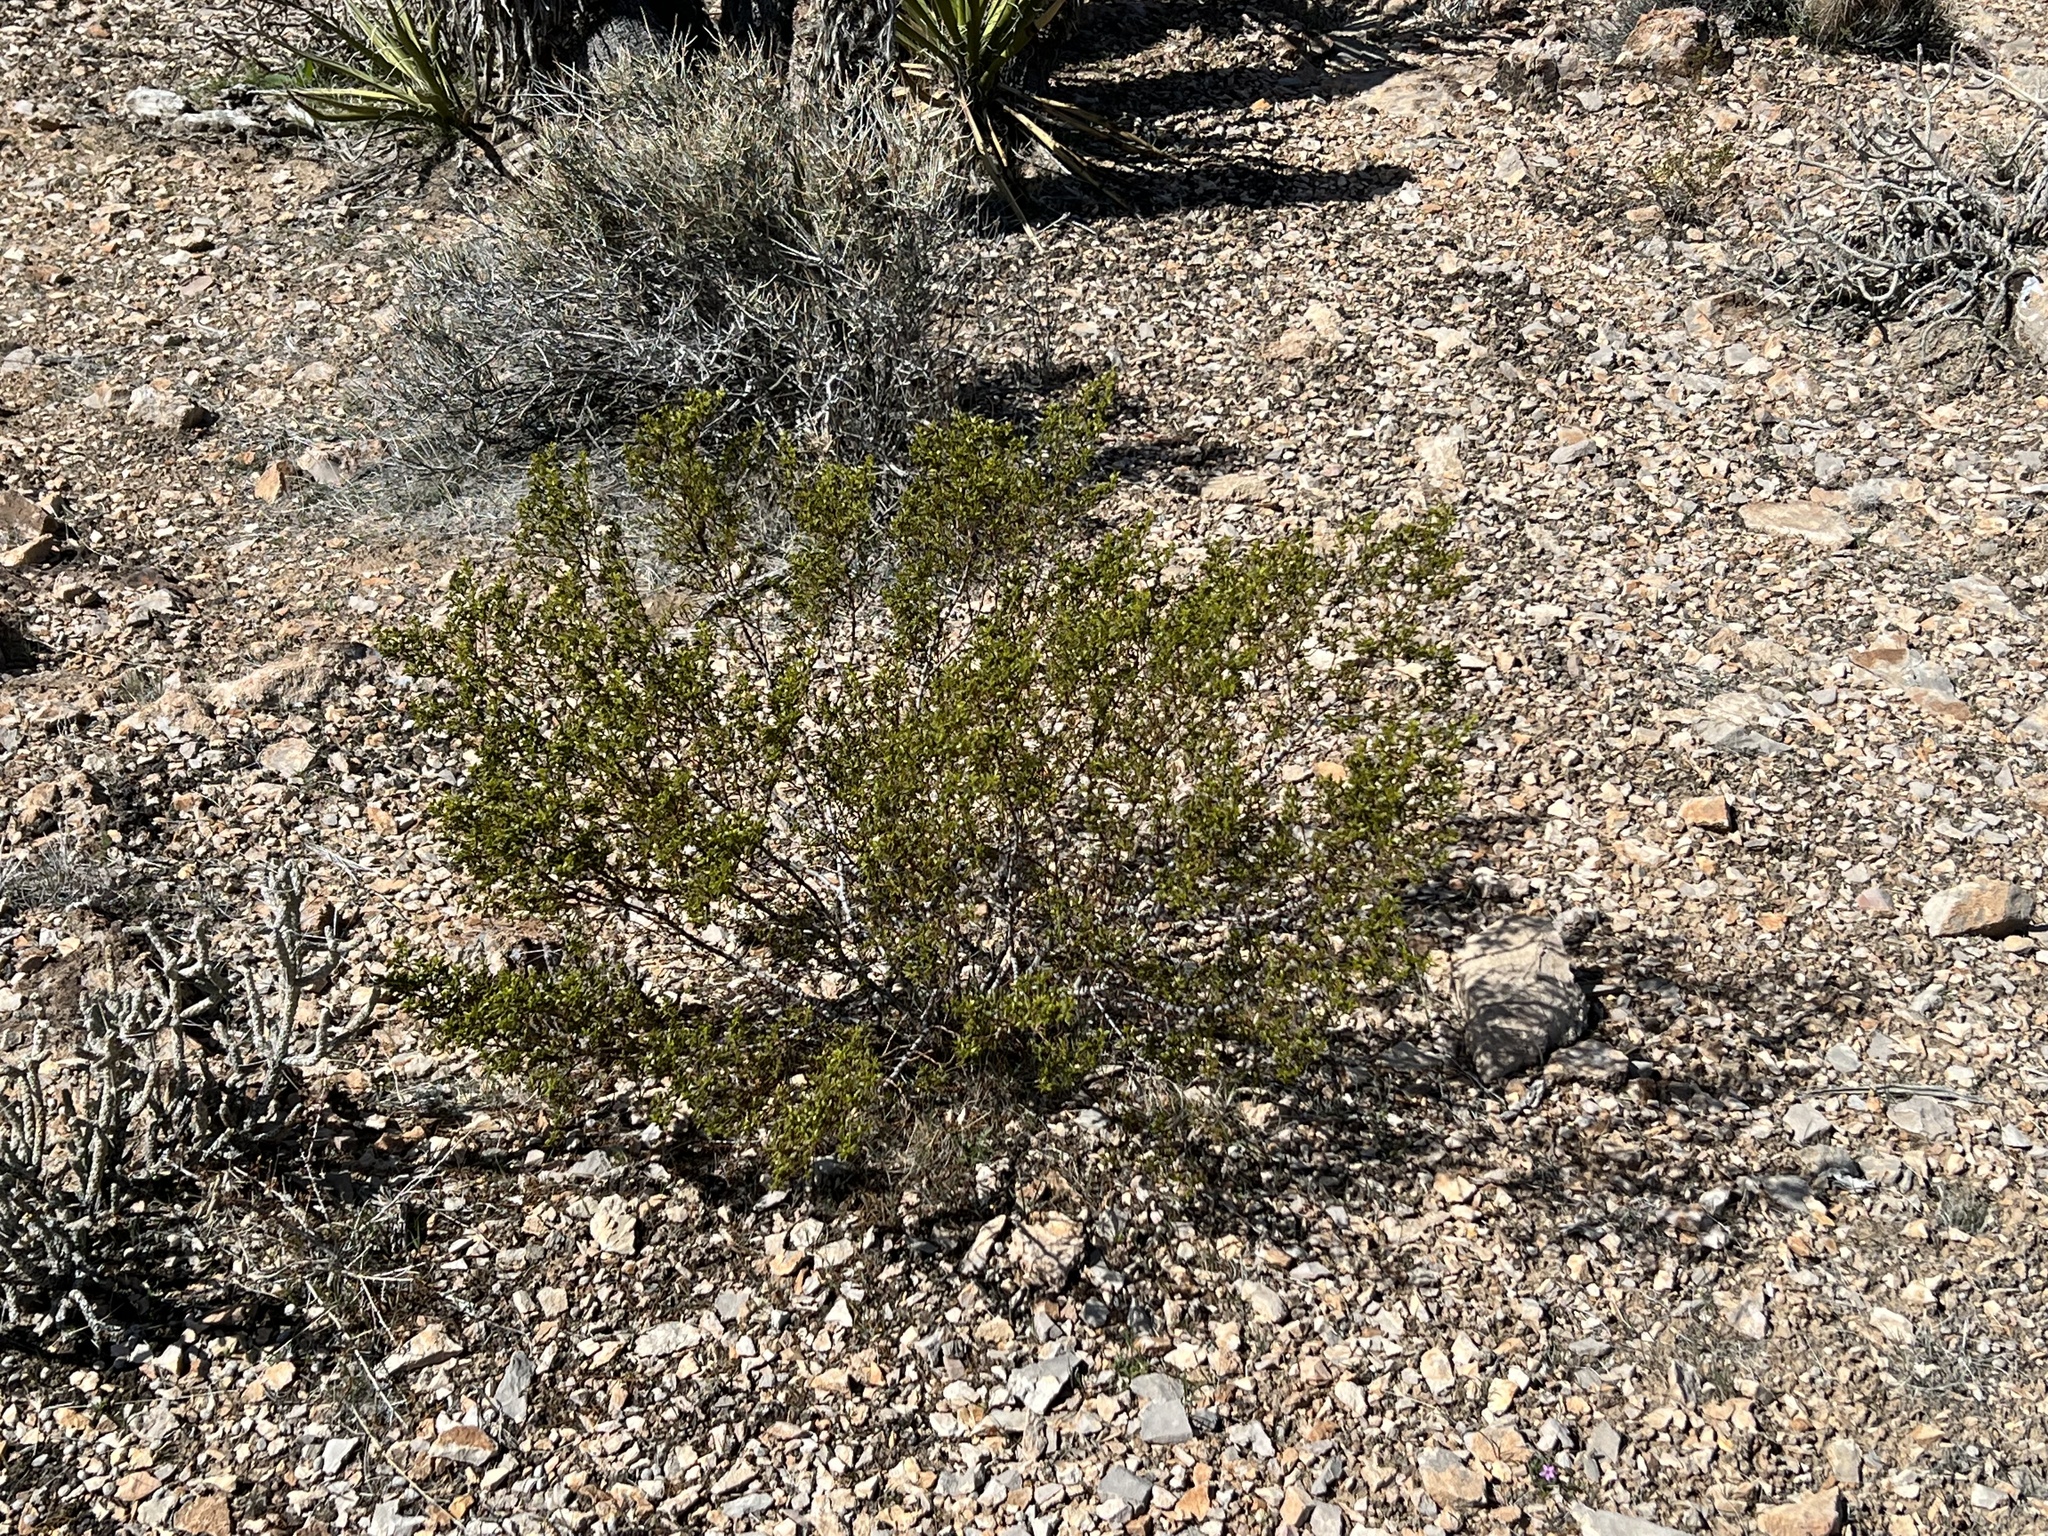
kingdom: Plantae
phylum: Tracheophyta
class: Magnoliopsida
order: Zygophyllales
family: Zygophyllaceae
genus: Larrea
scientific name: Larrea tridentata
